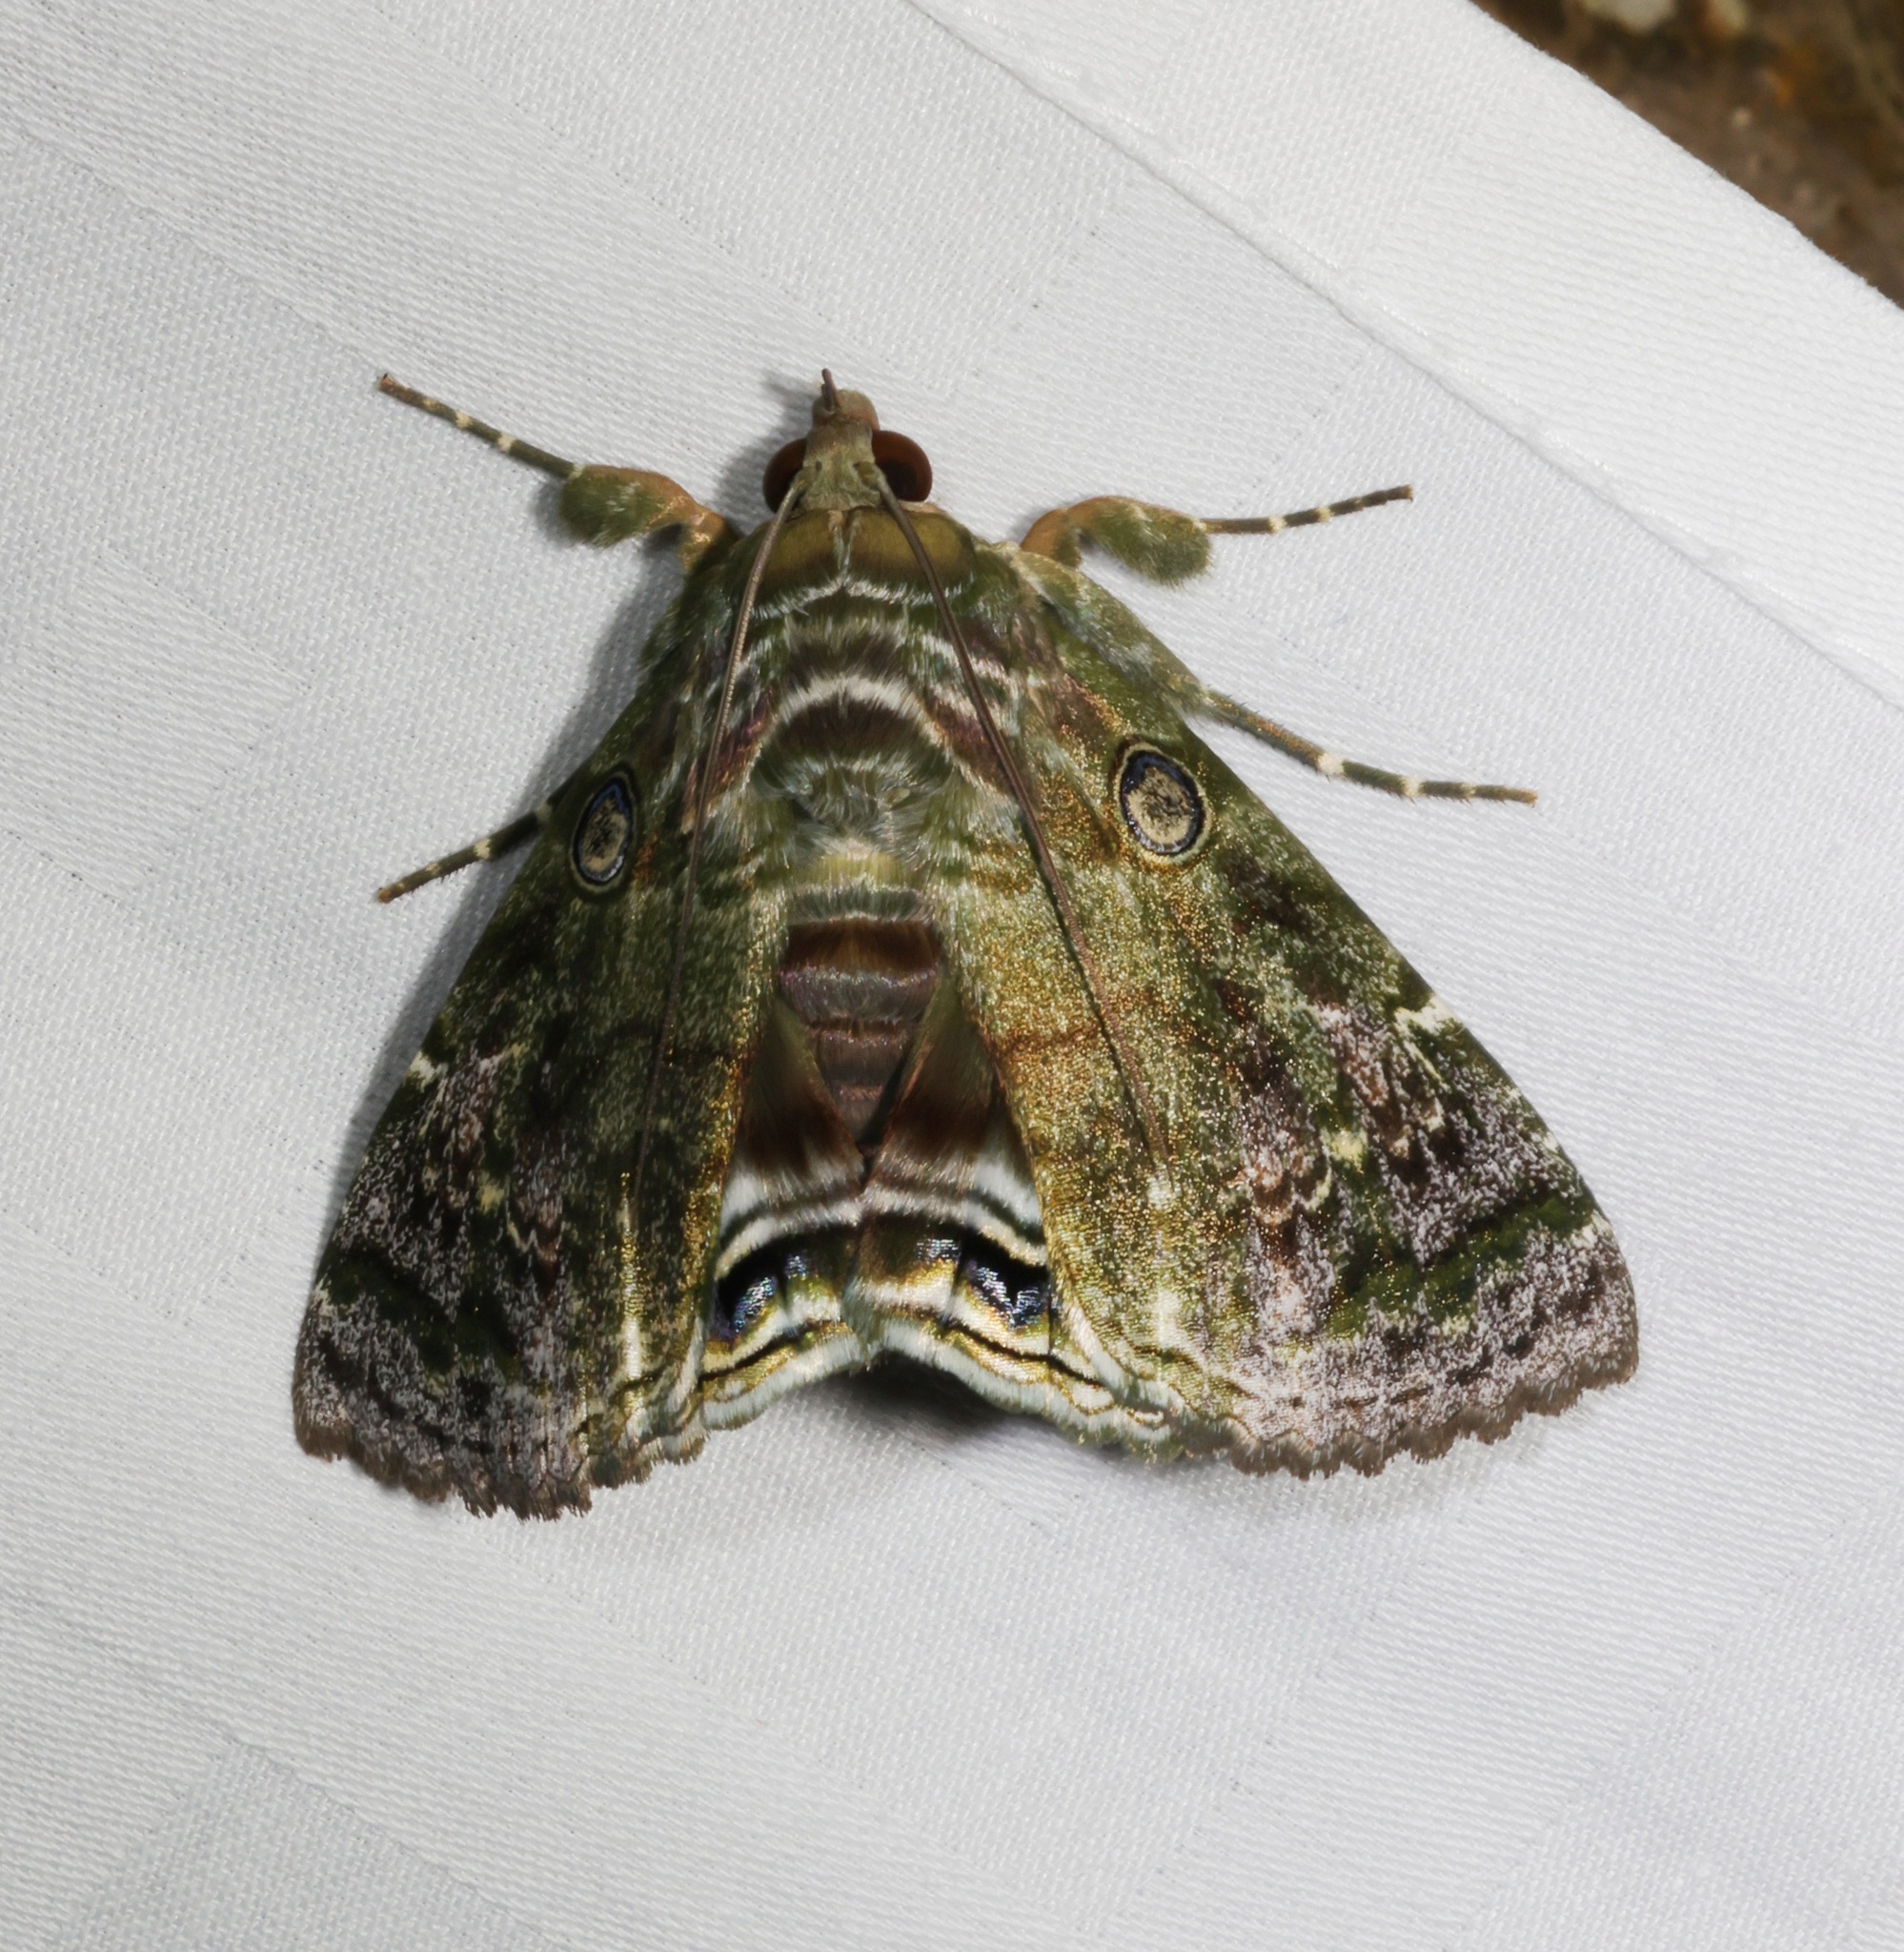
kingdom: Animalia
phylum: Arthropoda
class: Insecta
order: Lepidoptera
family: Erebidae
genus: Cyclodes
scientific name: Cyclodes omma
